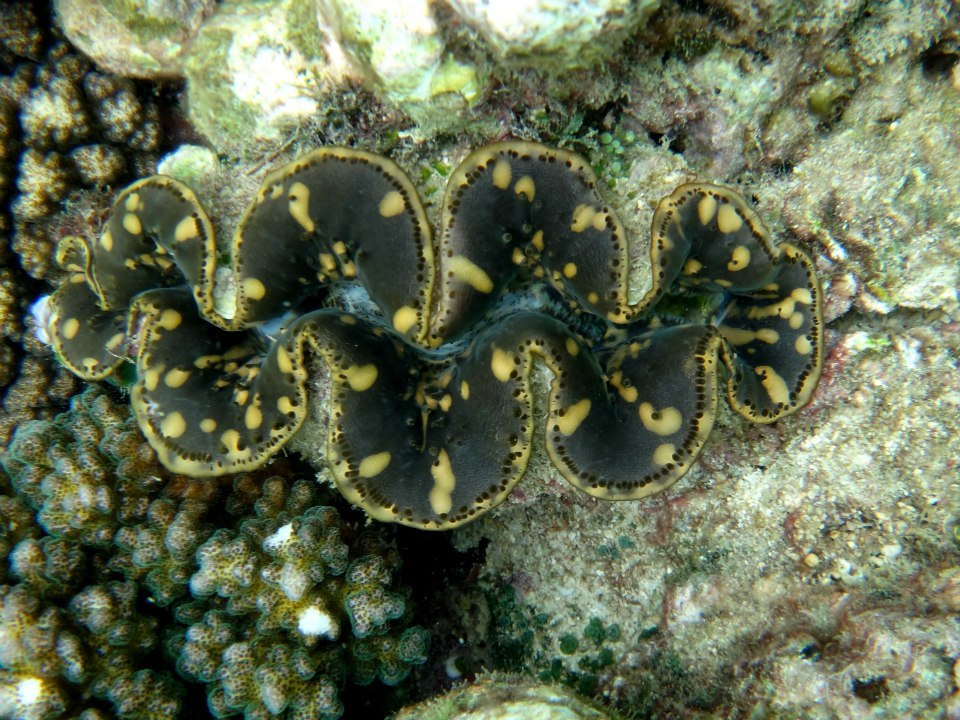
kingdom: Animalia
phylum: Mollusca
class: Bivalvia
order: Cardiida
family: Cardiidae
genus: Tridacna
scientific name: Tridacna maxima
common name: Small giant clam
